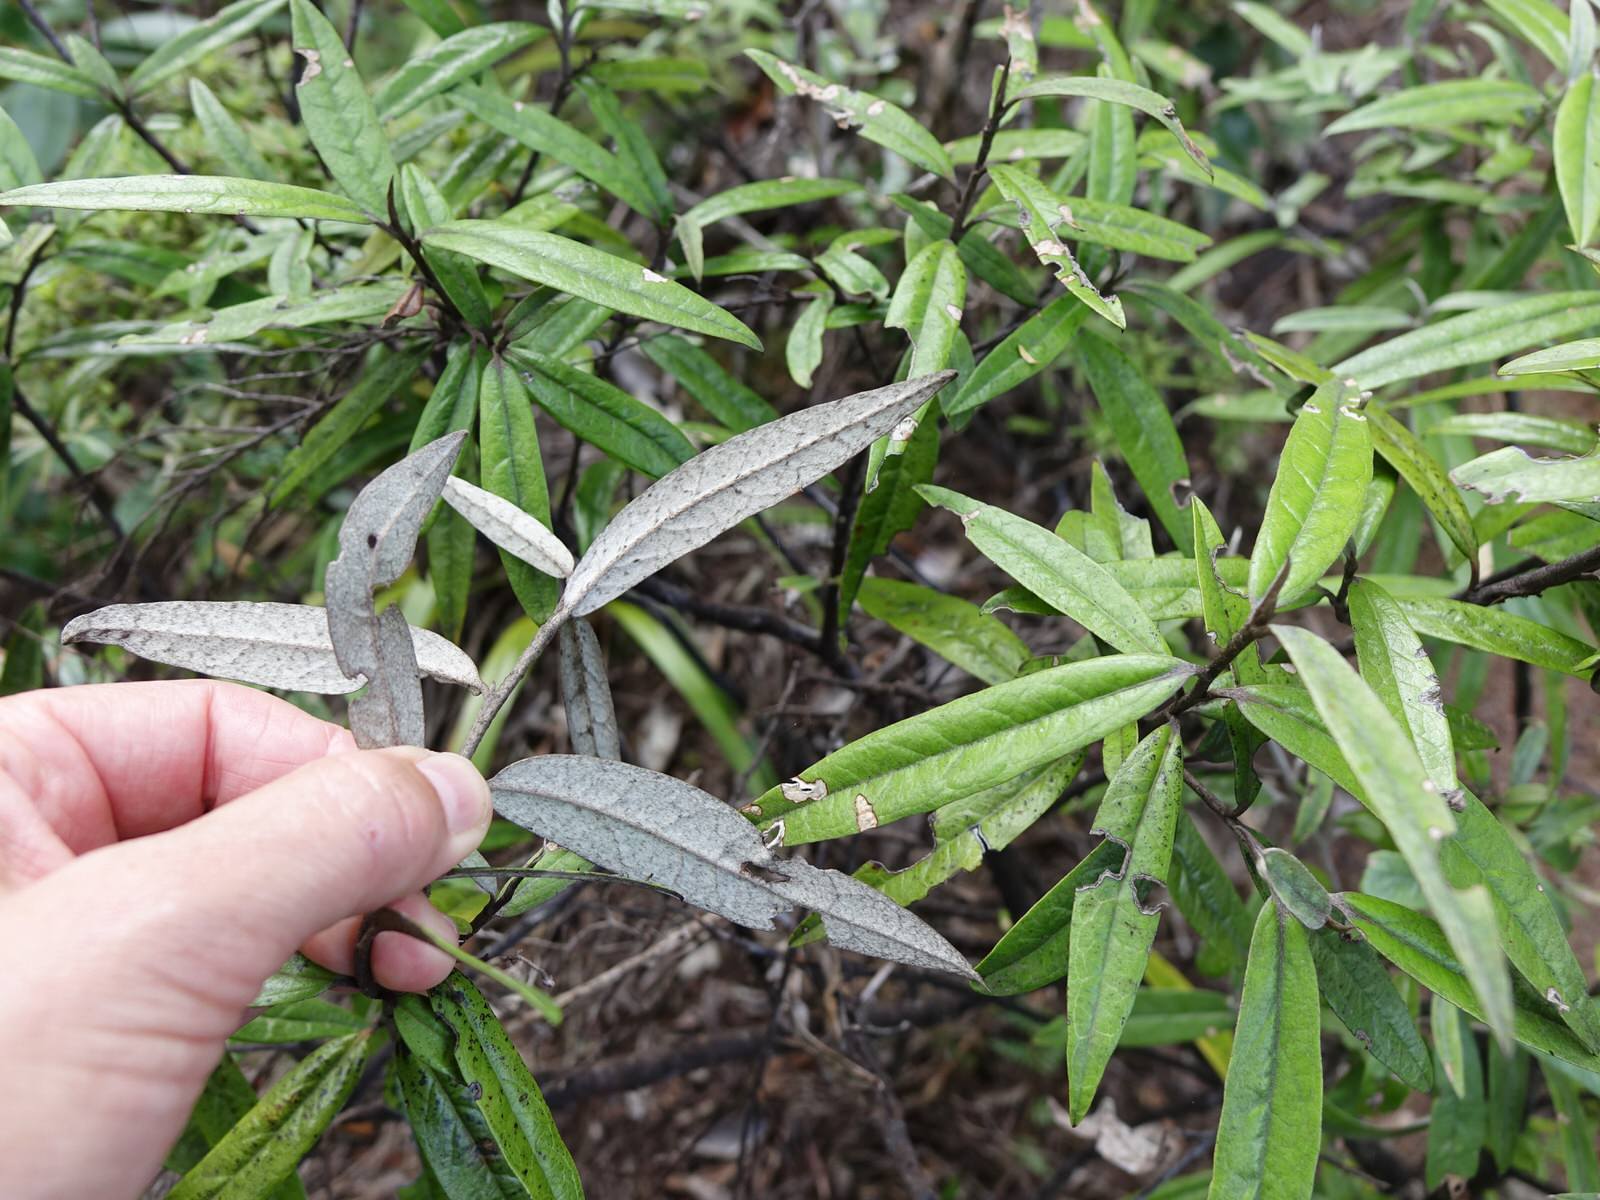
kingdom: Plantae
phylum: Tracheophyta
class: Magnoliopsida
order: Asterales
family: Argophyllaceae
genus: Corokia
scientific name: Corokia buddleioides
